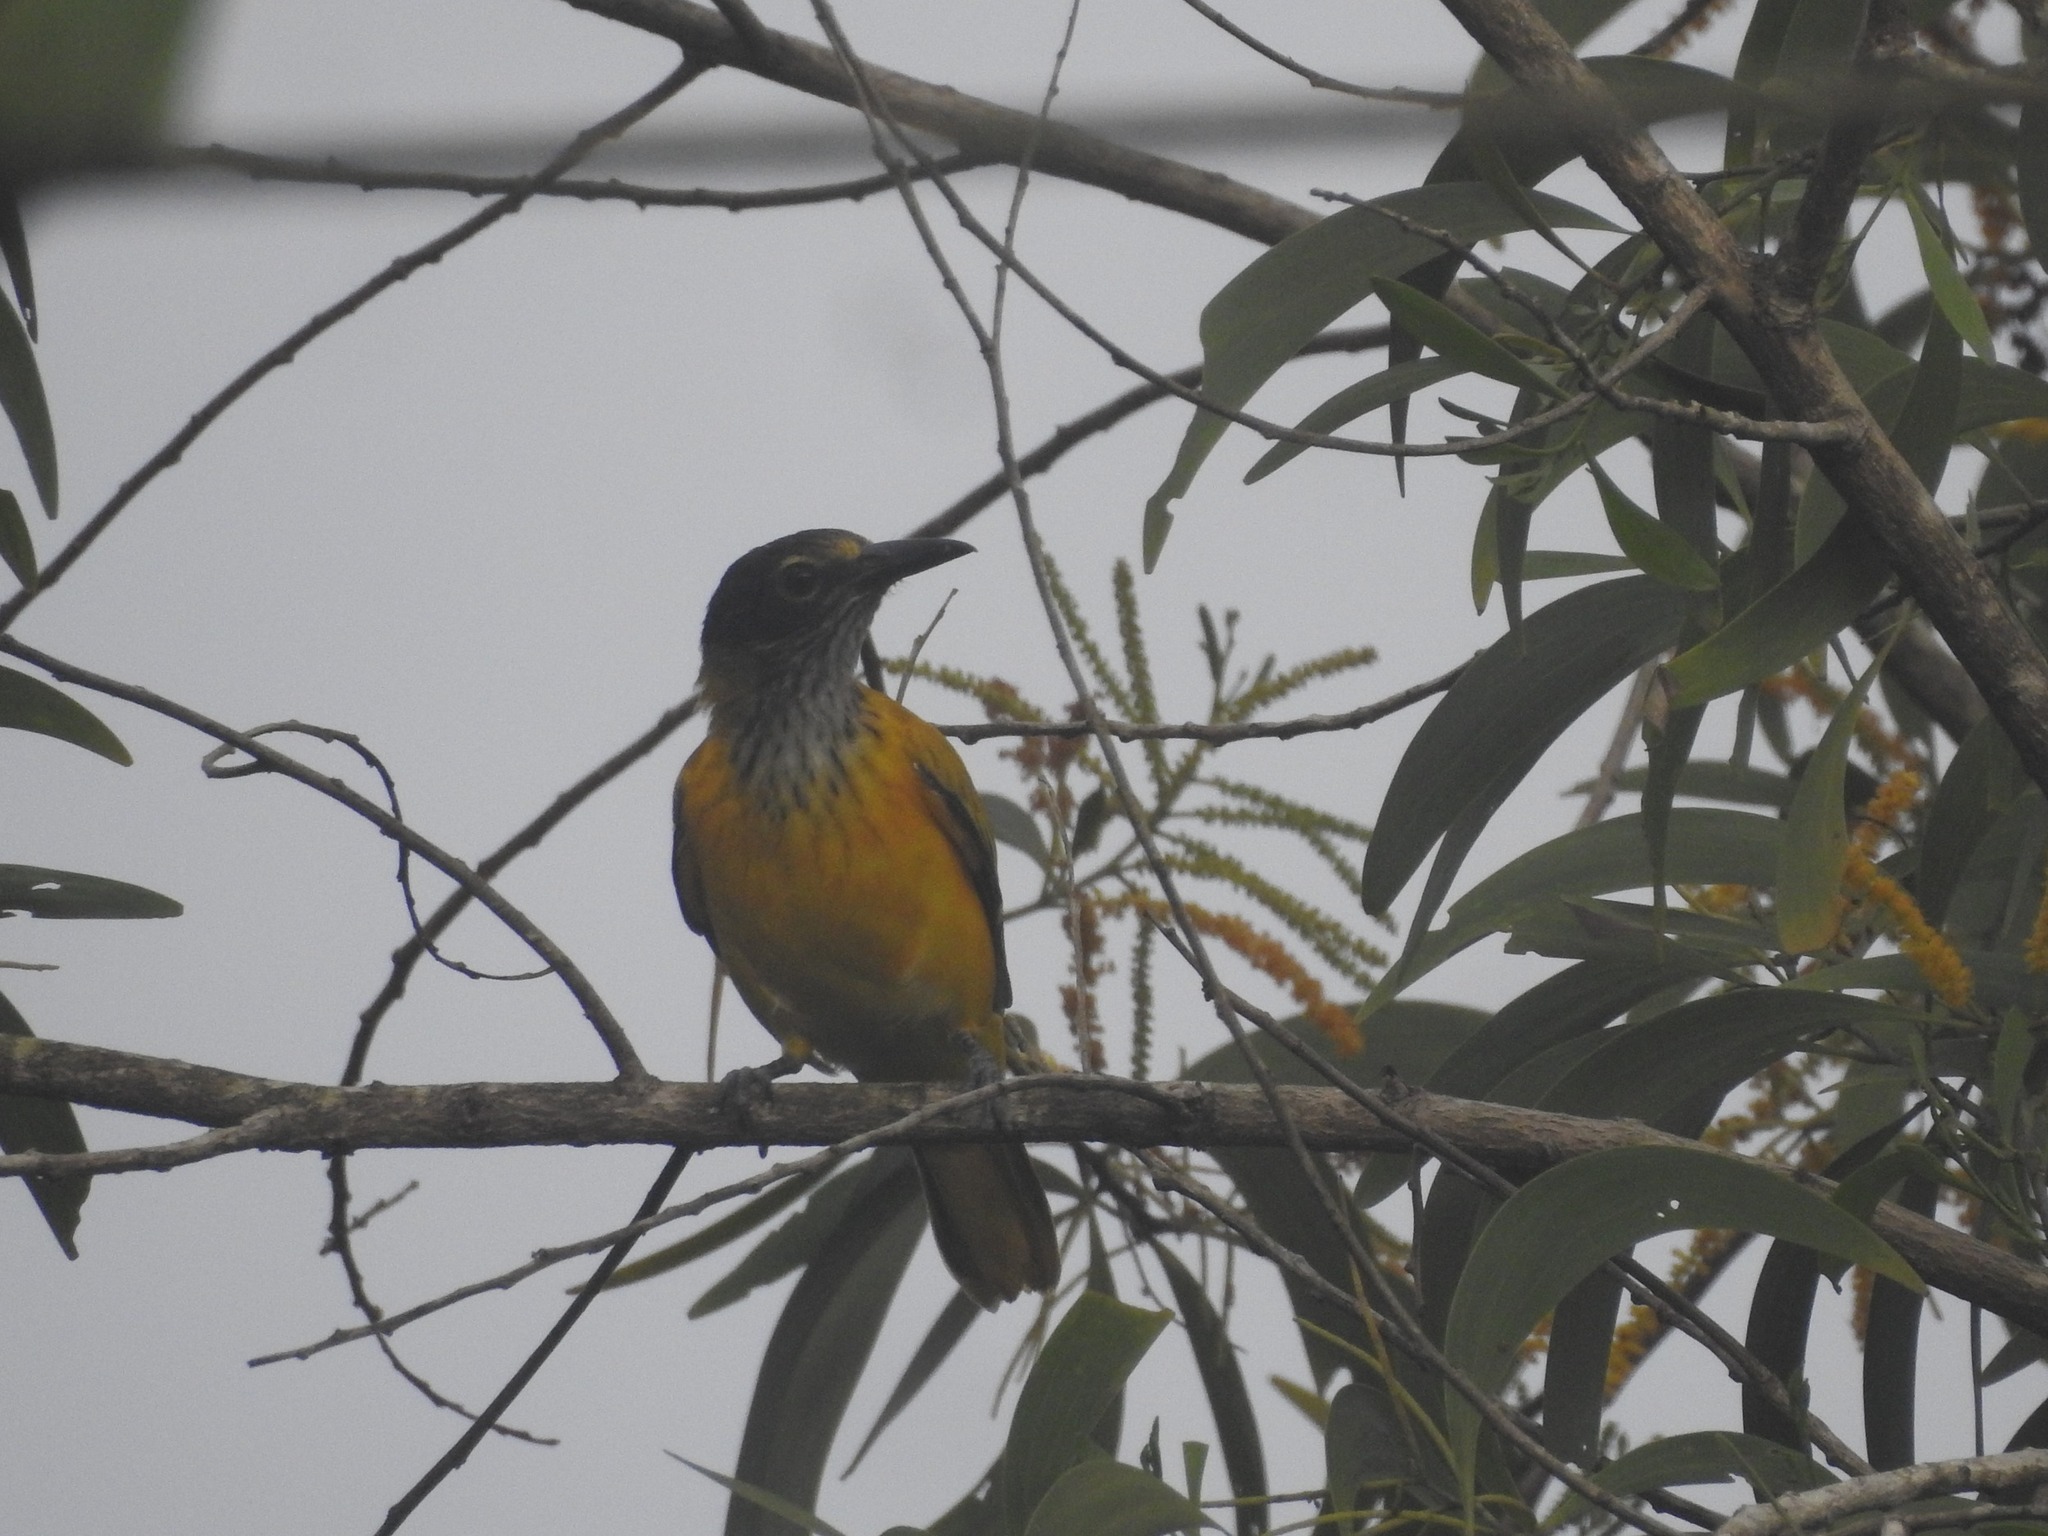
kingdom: Animalia
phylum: Chordata
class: Aves
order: Passeriformes
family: Oriolidae
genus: Oriolus
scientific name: Oriolus xanthornus
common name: Black-hooded oriole
